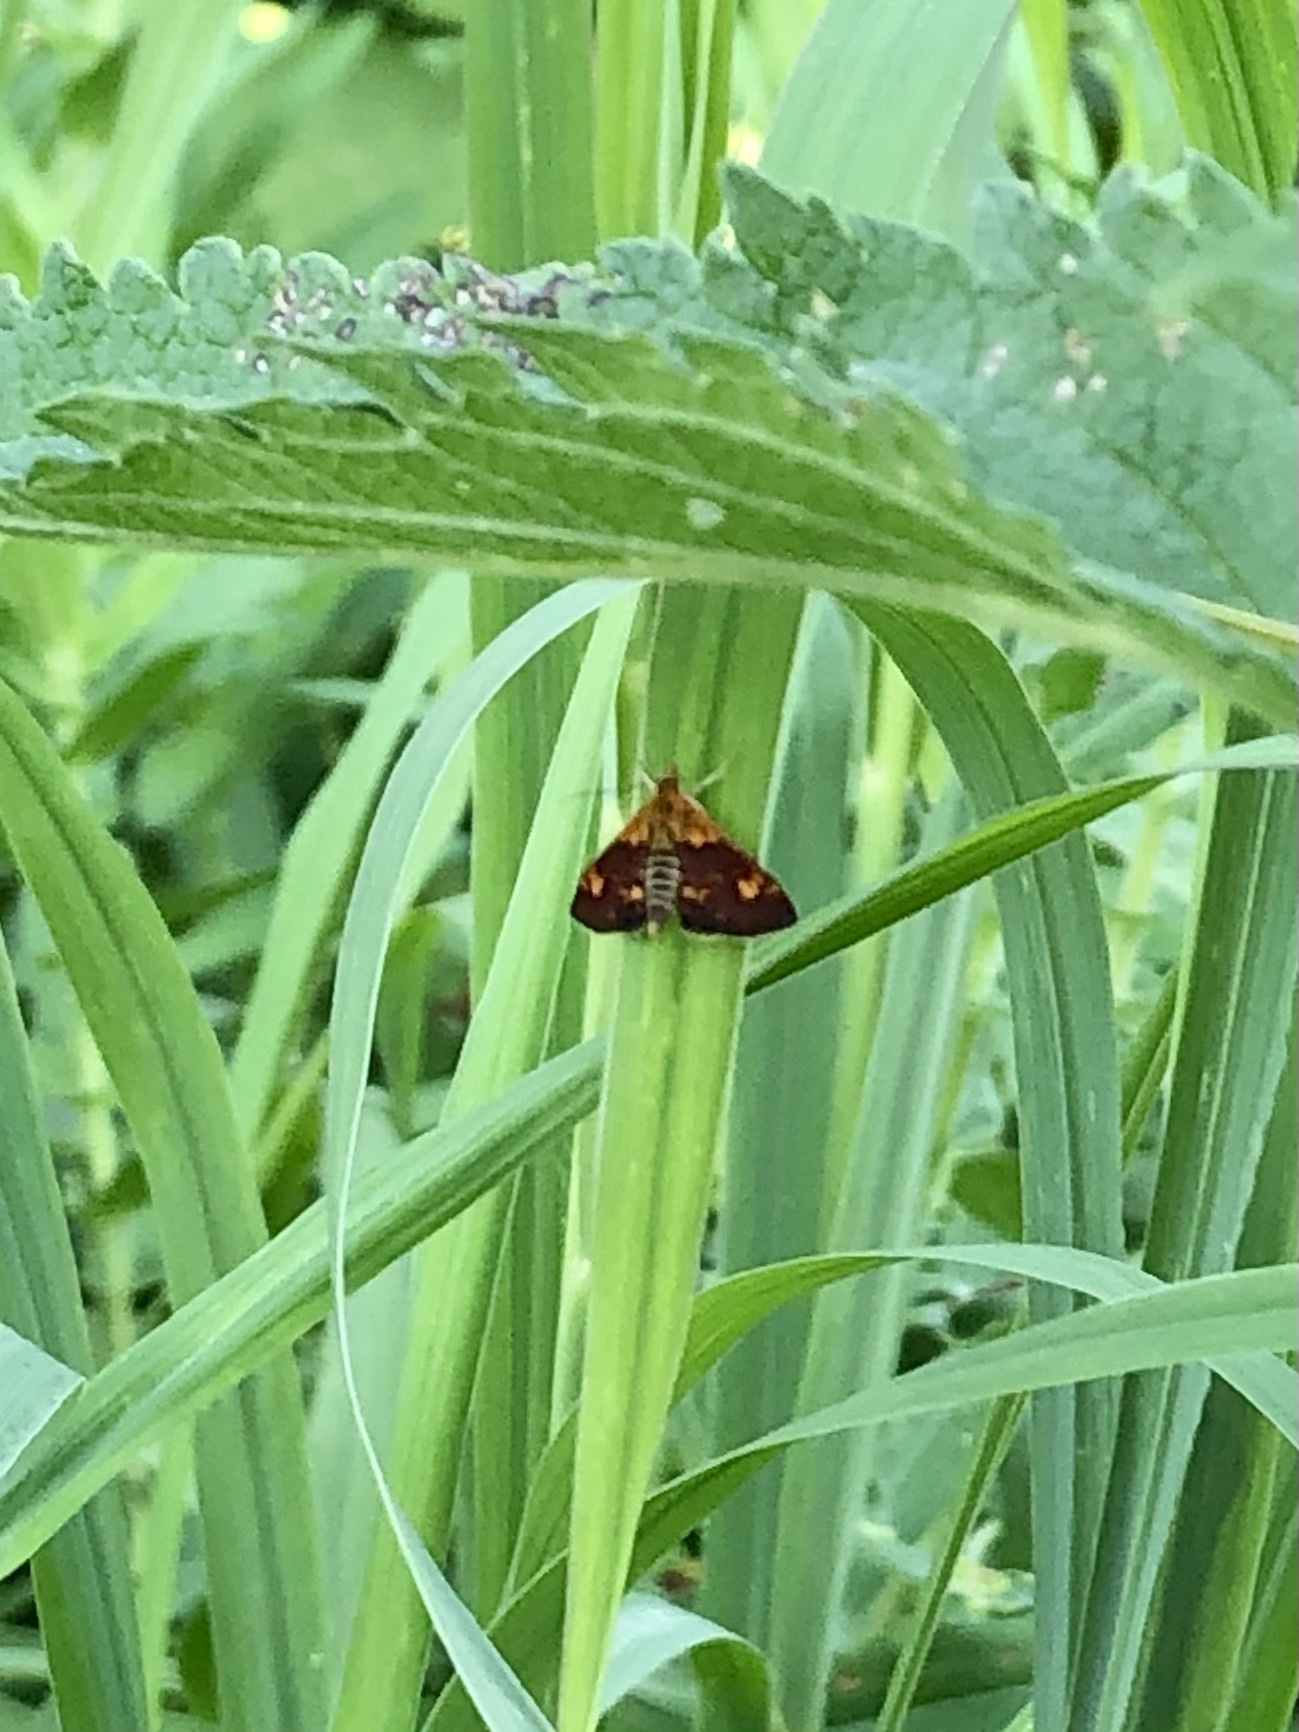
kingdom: Animalia
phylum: Arthropoda
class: Insecta
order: Lepidoptera
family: Crambidae
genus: Pyrausta
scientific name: Pyrausta orphisalis
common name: Orange mint moth
